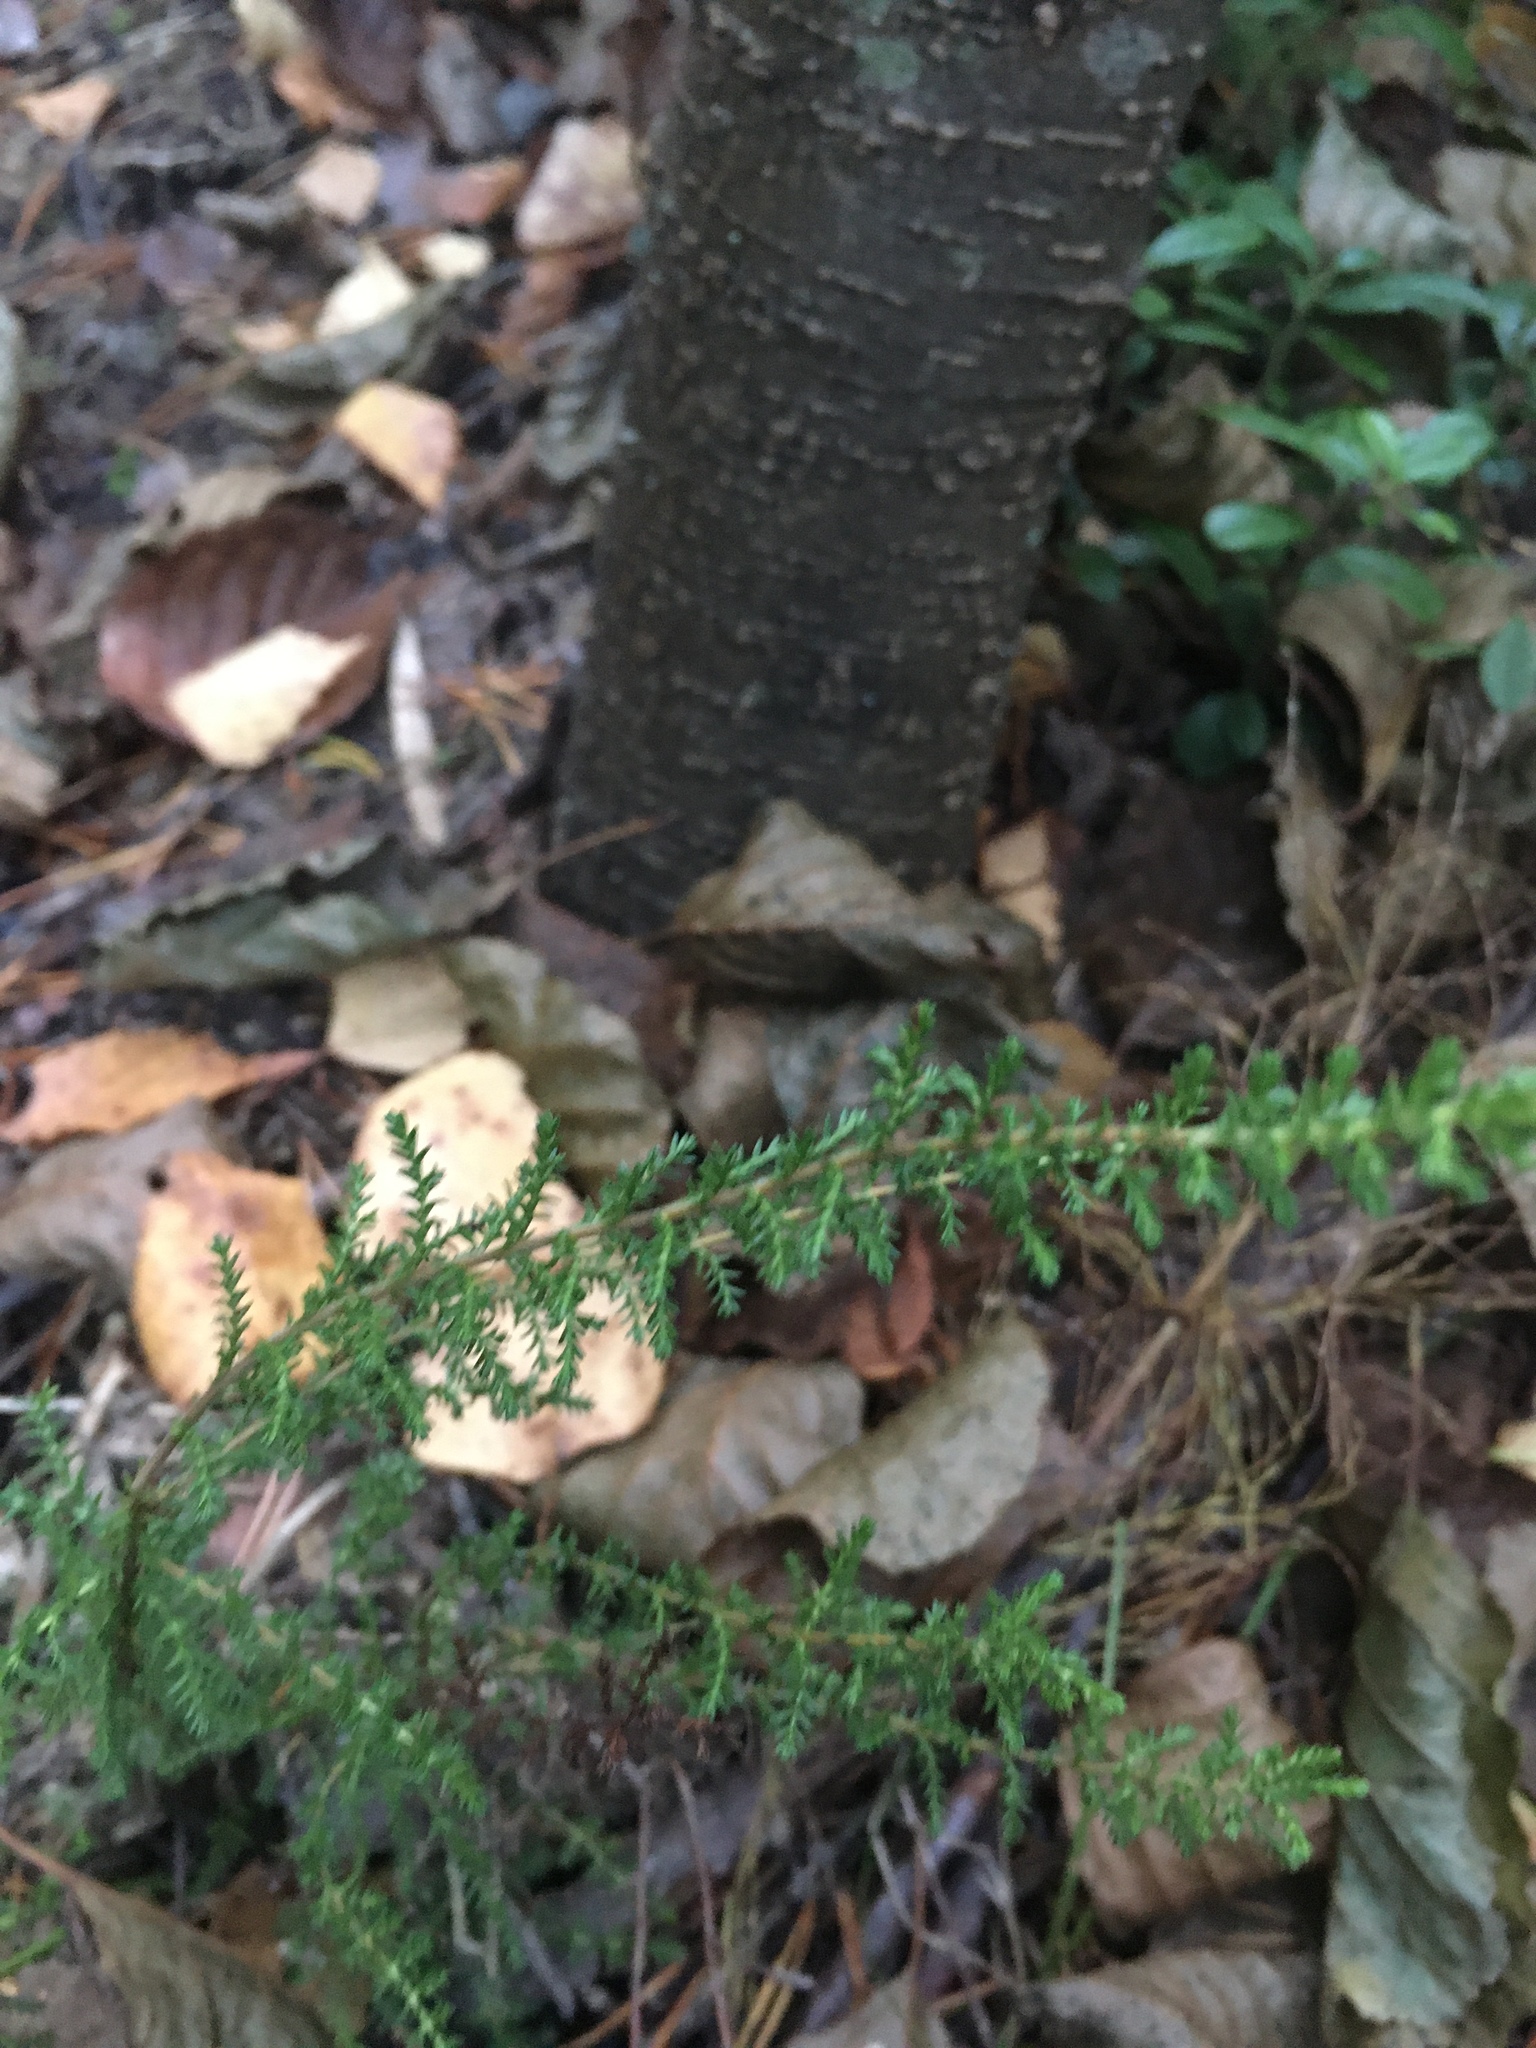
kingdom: Plantae
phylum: Tracheophyta
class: Magnoliopsida
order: Ericales
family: Ericaceae
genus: Calluna
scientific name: Calluna vulgaris
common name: Heather
